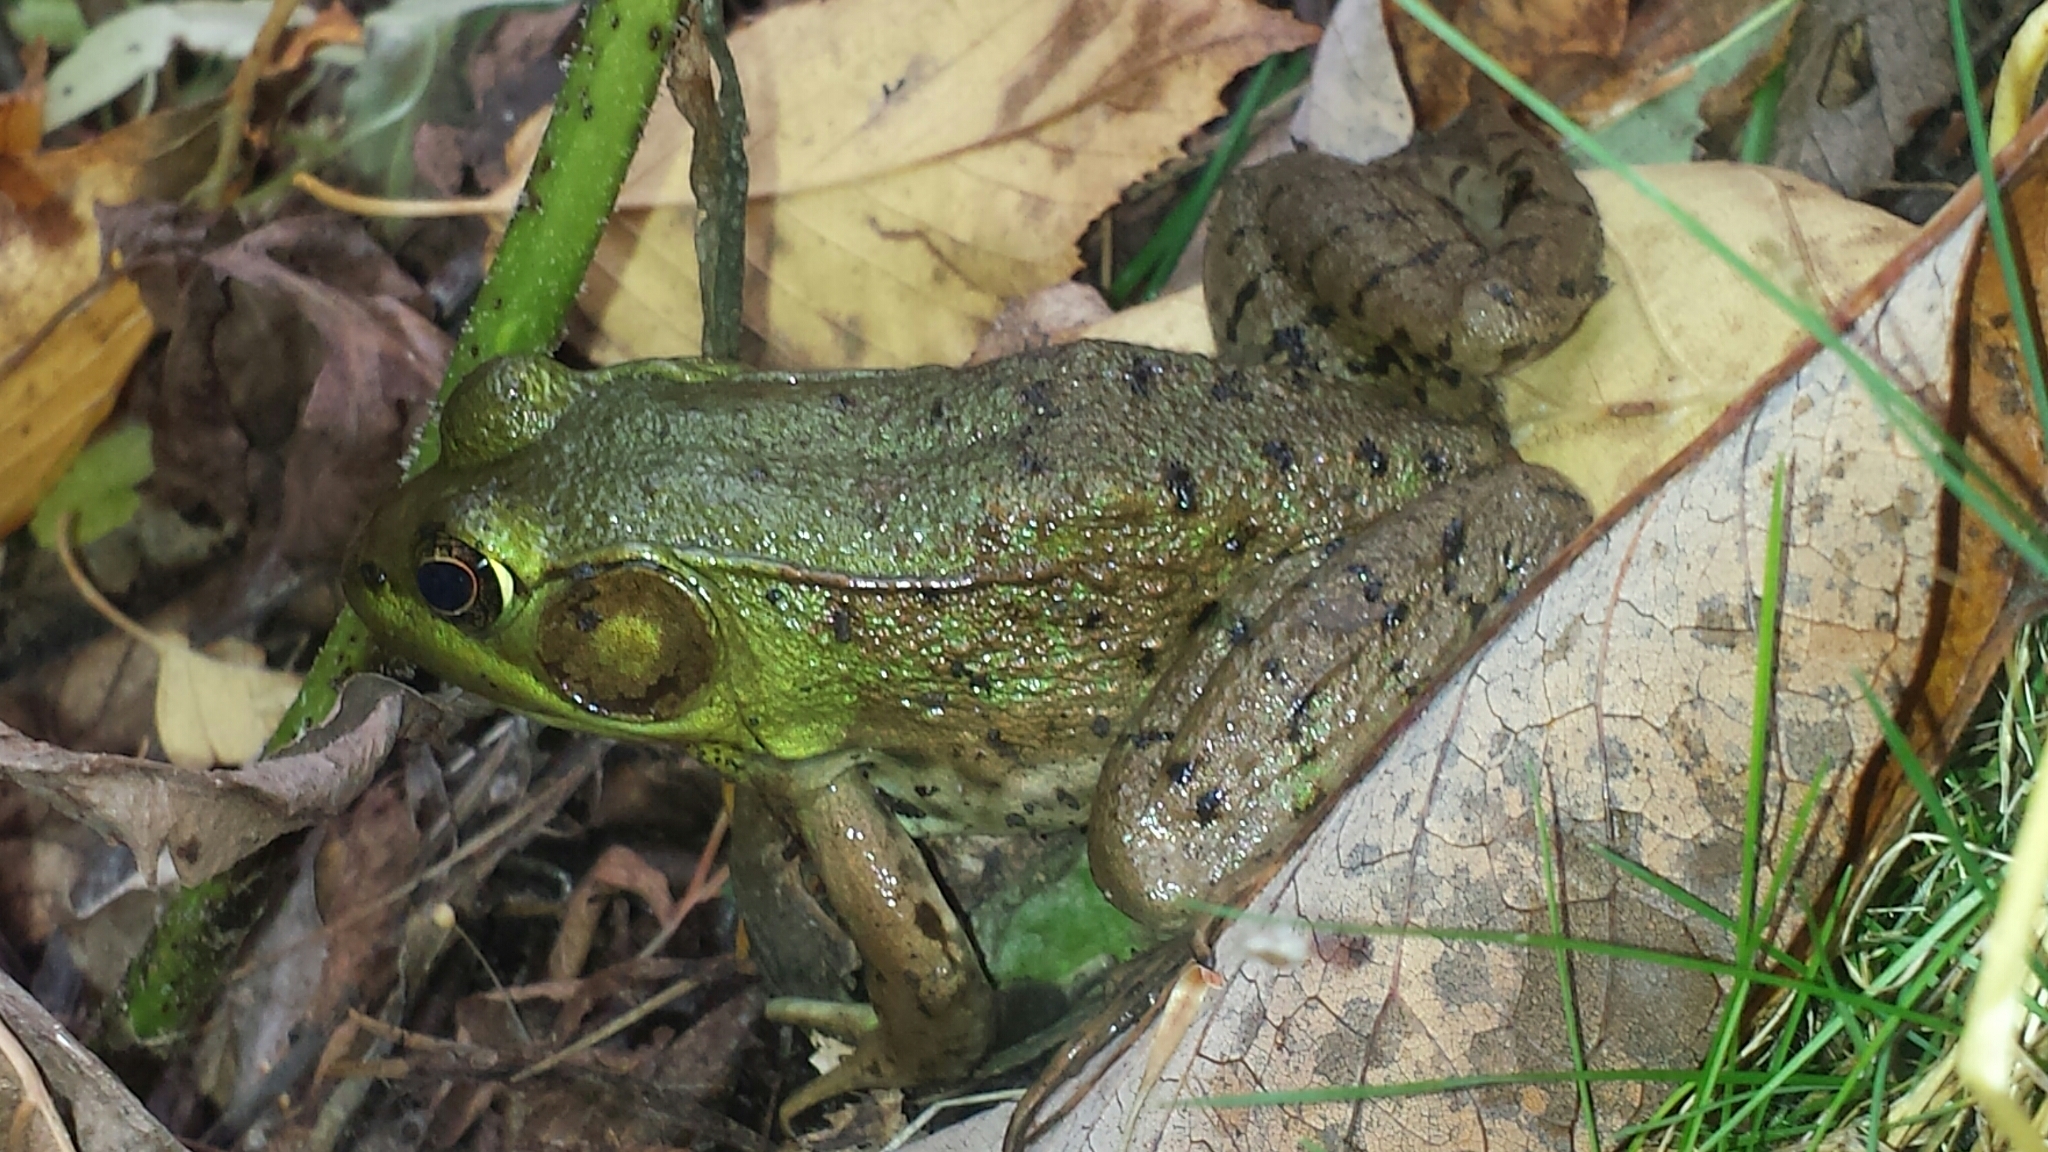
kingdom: Animalia
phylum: Chordata
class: Amphibia
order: Anura
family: Ranidae
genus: Lithobates
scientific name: Lithobates clamitans
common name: Green frog
